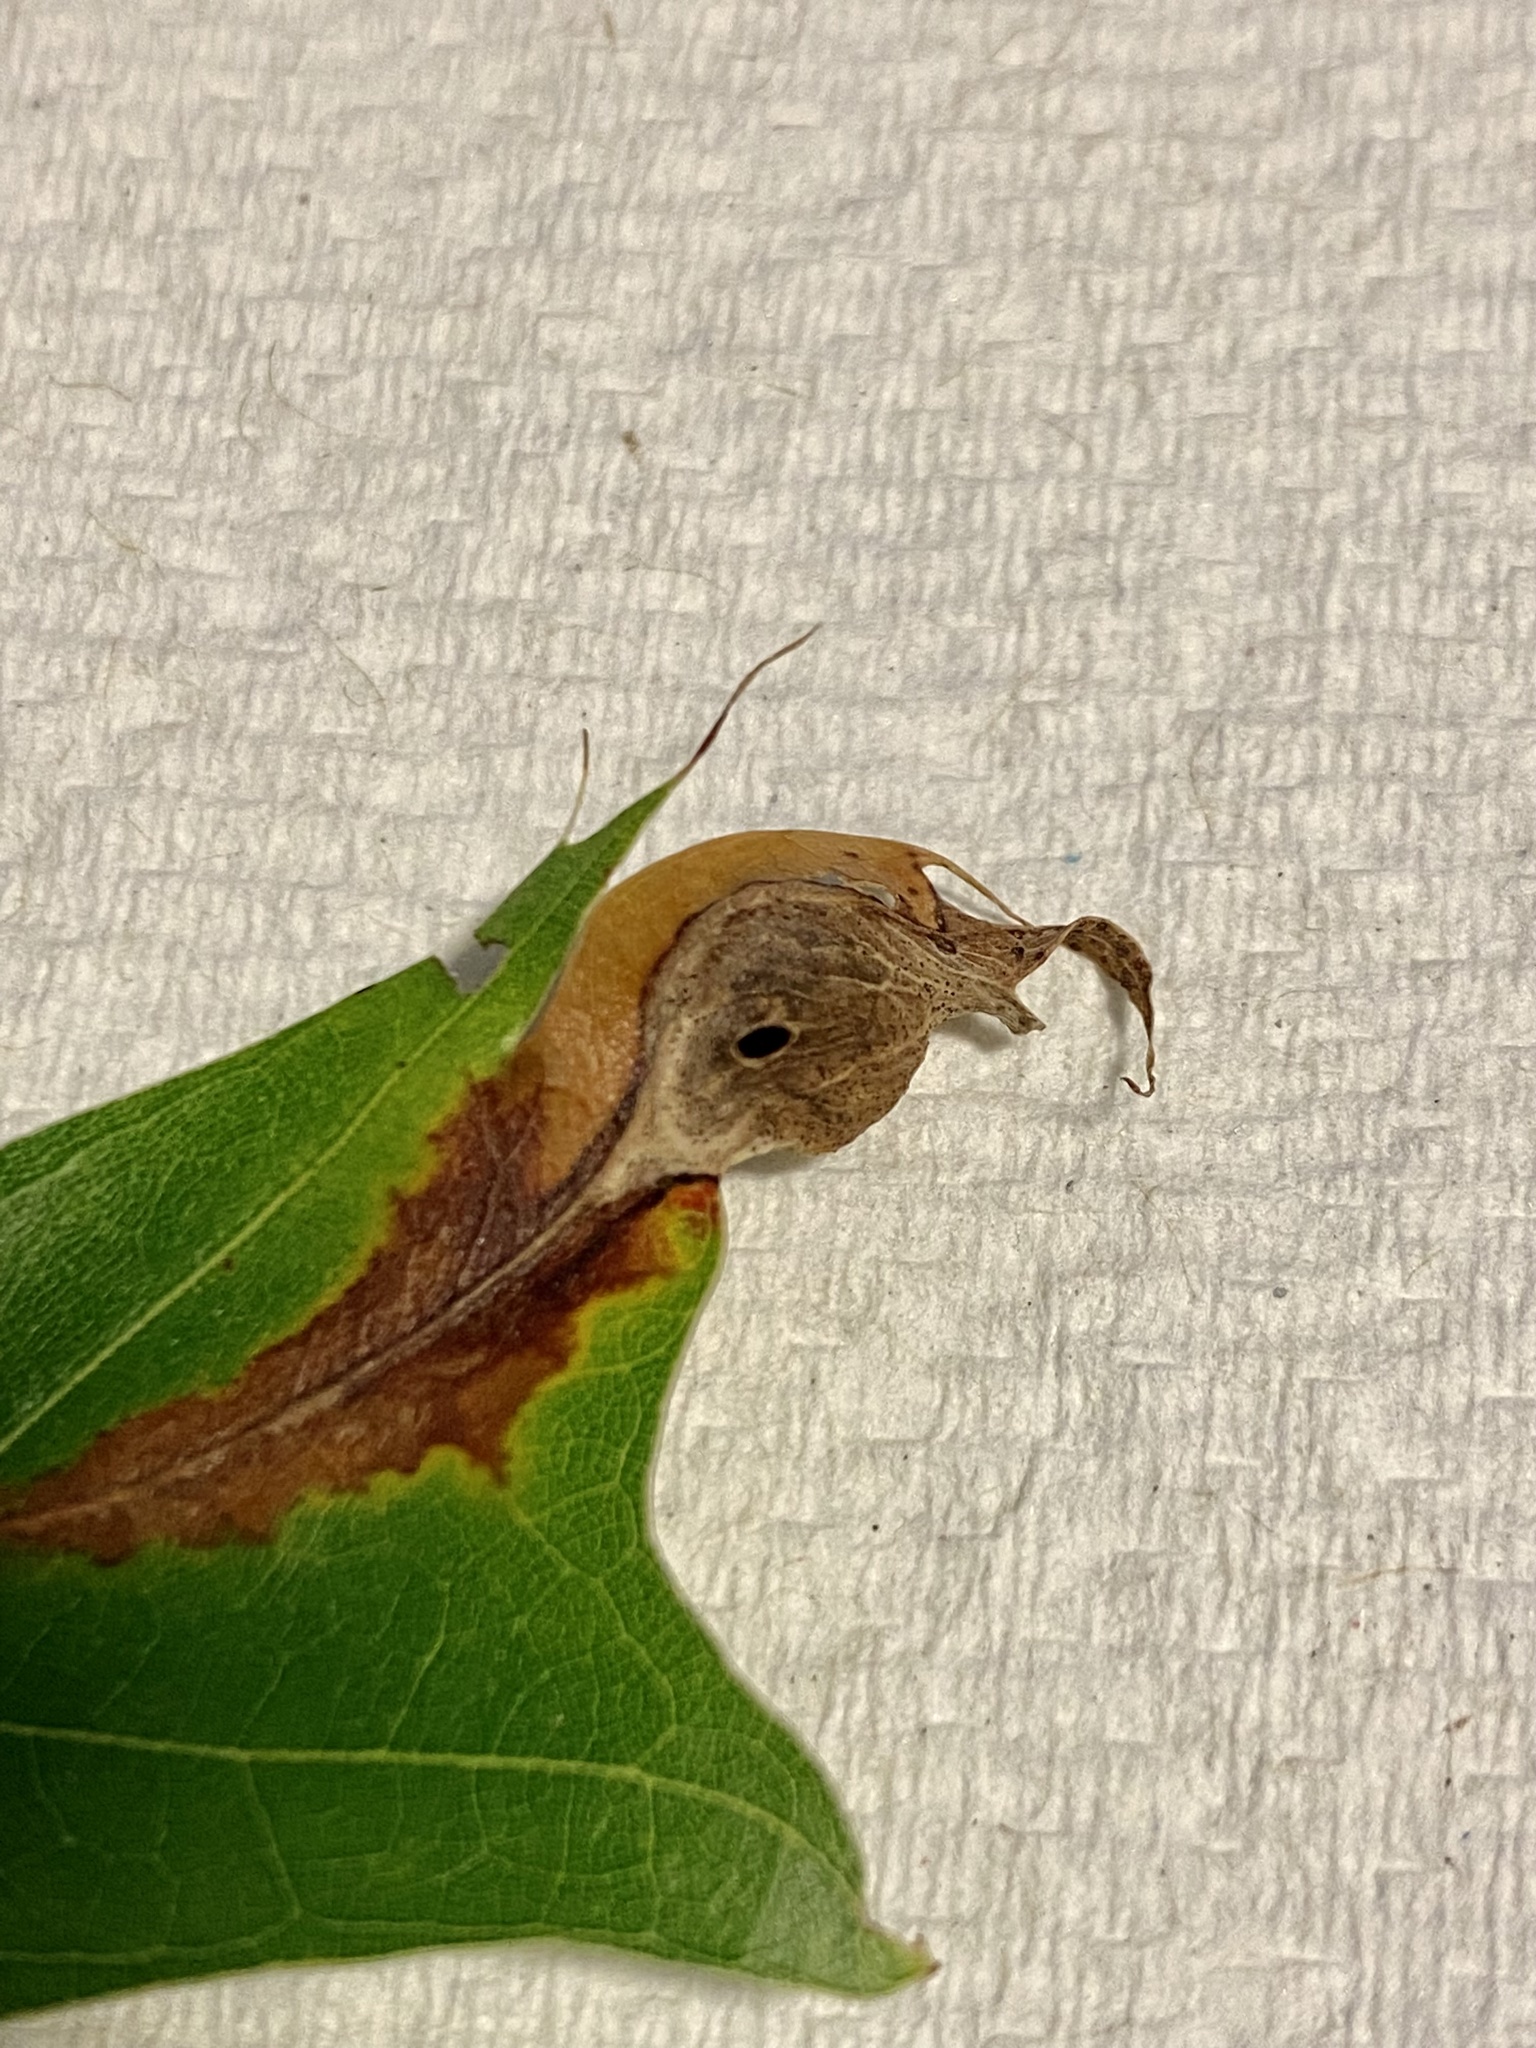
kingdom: Animalia
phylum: Arthropoda
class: Insecta
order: Hymenoptera
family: Cynipidae
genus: Dryocosmus
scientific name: Dryocosmus
